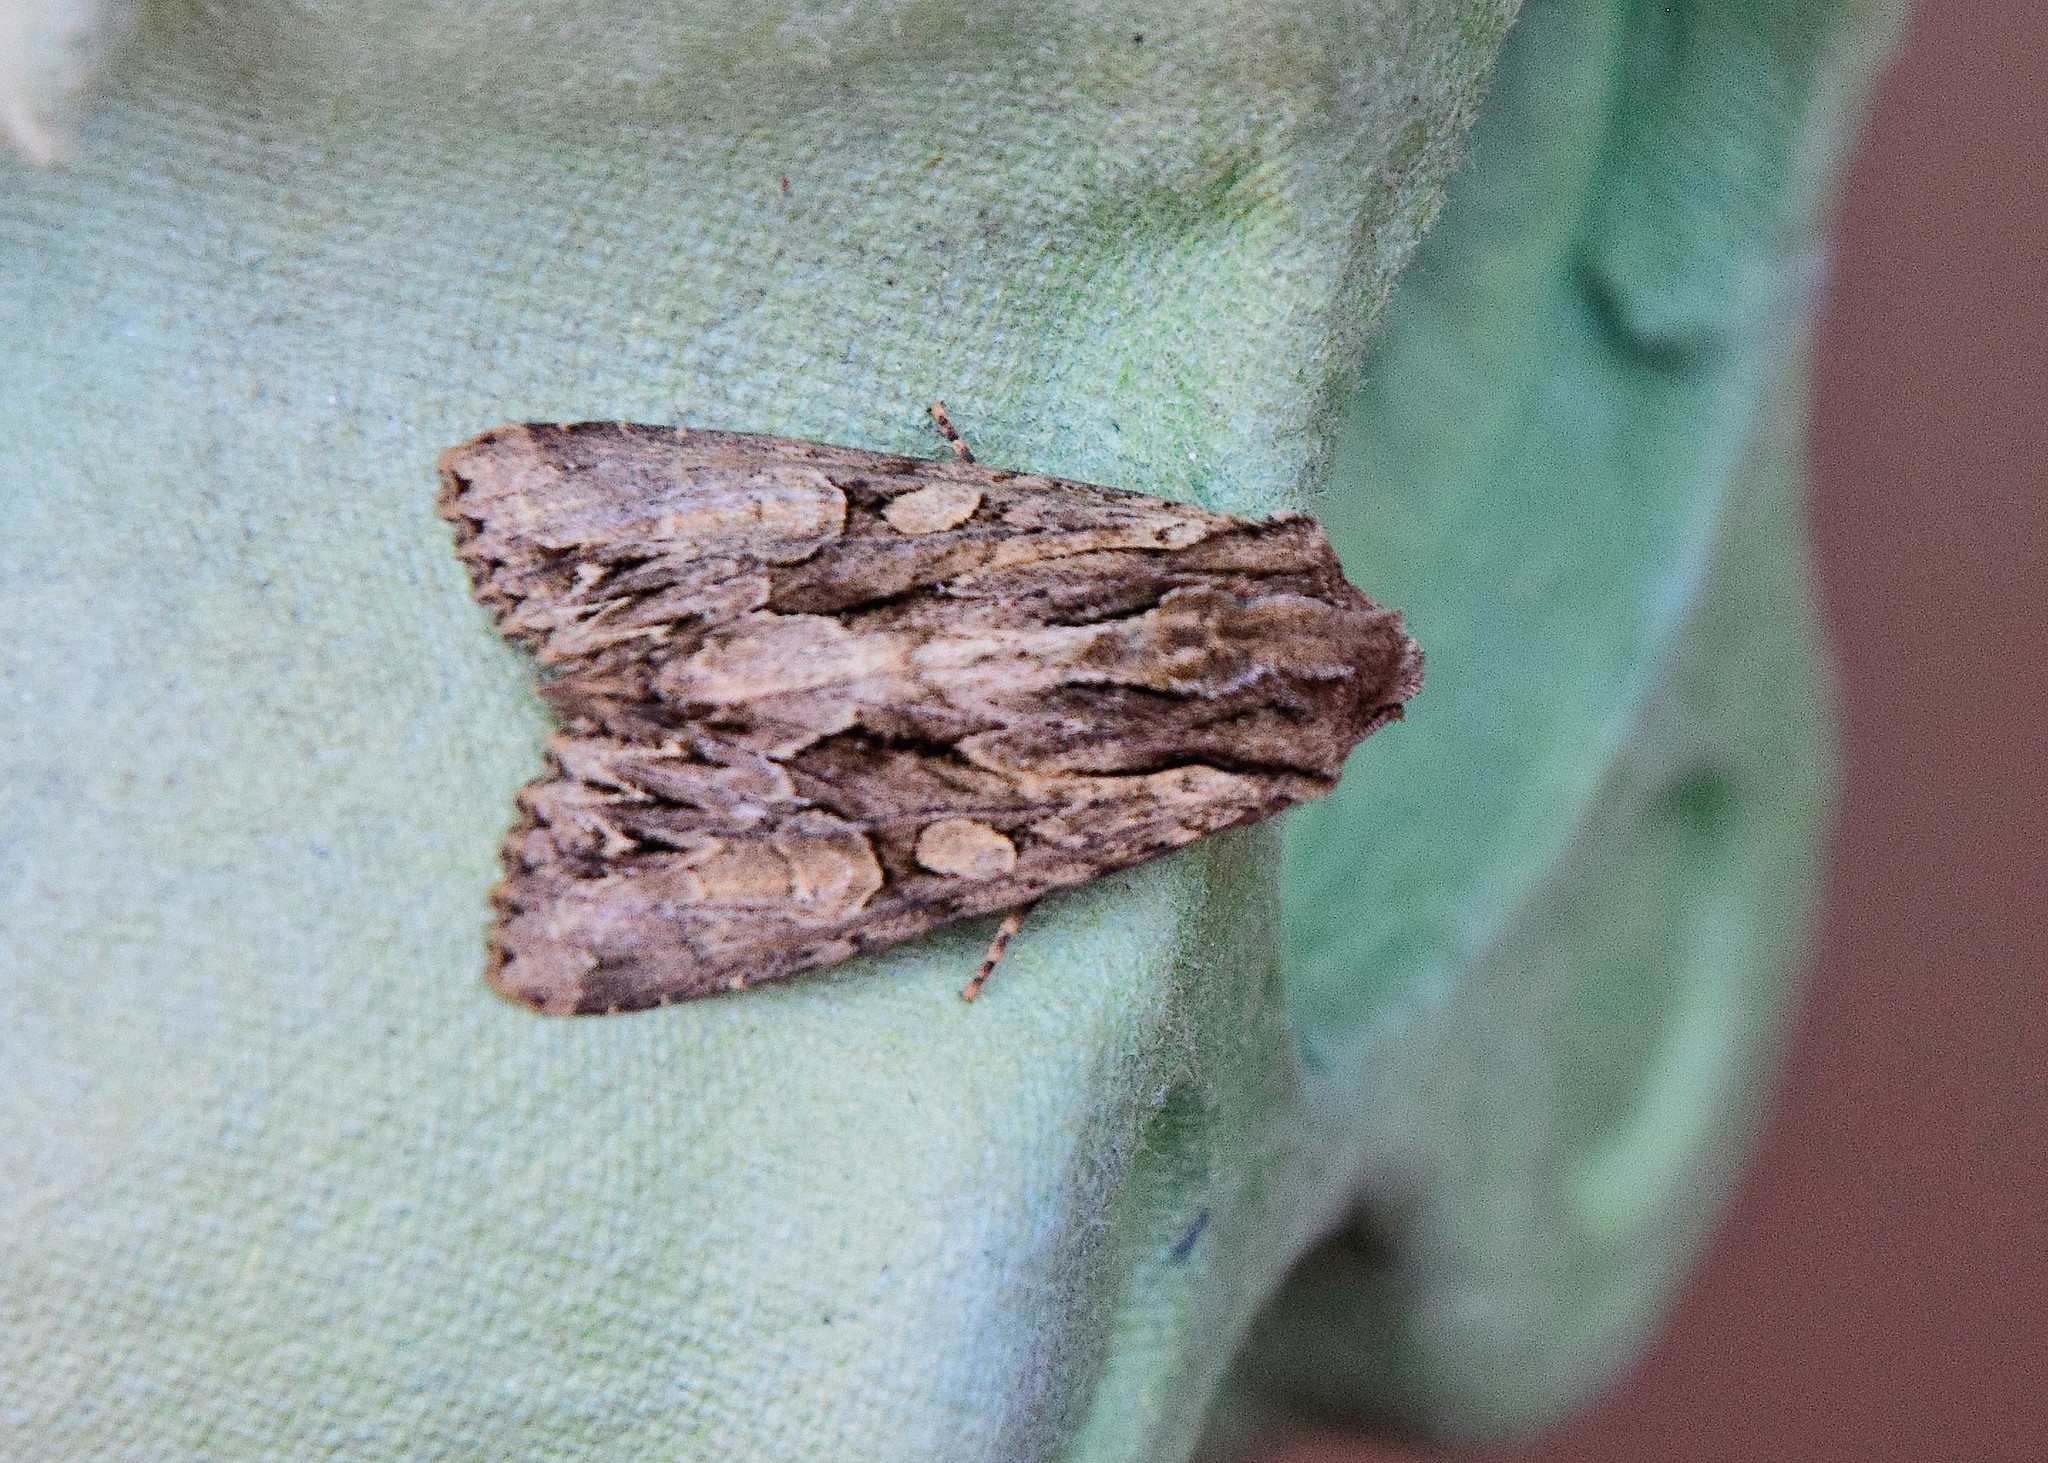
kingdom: Animalia
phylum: Arthropoda
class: Insecta
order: Lepidoptera
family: Noctuidae
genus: Apamea
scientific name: Apamea monoglypha
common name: Dark arches
